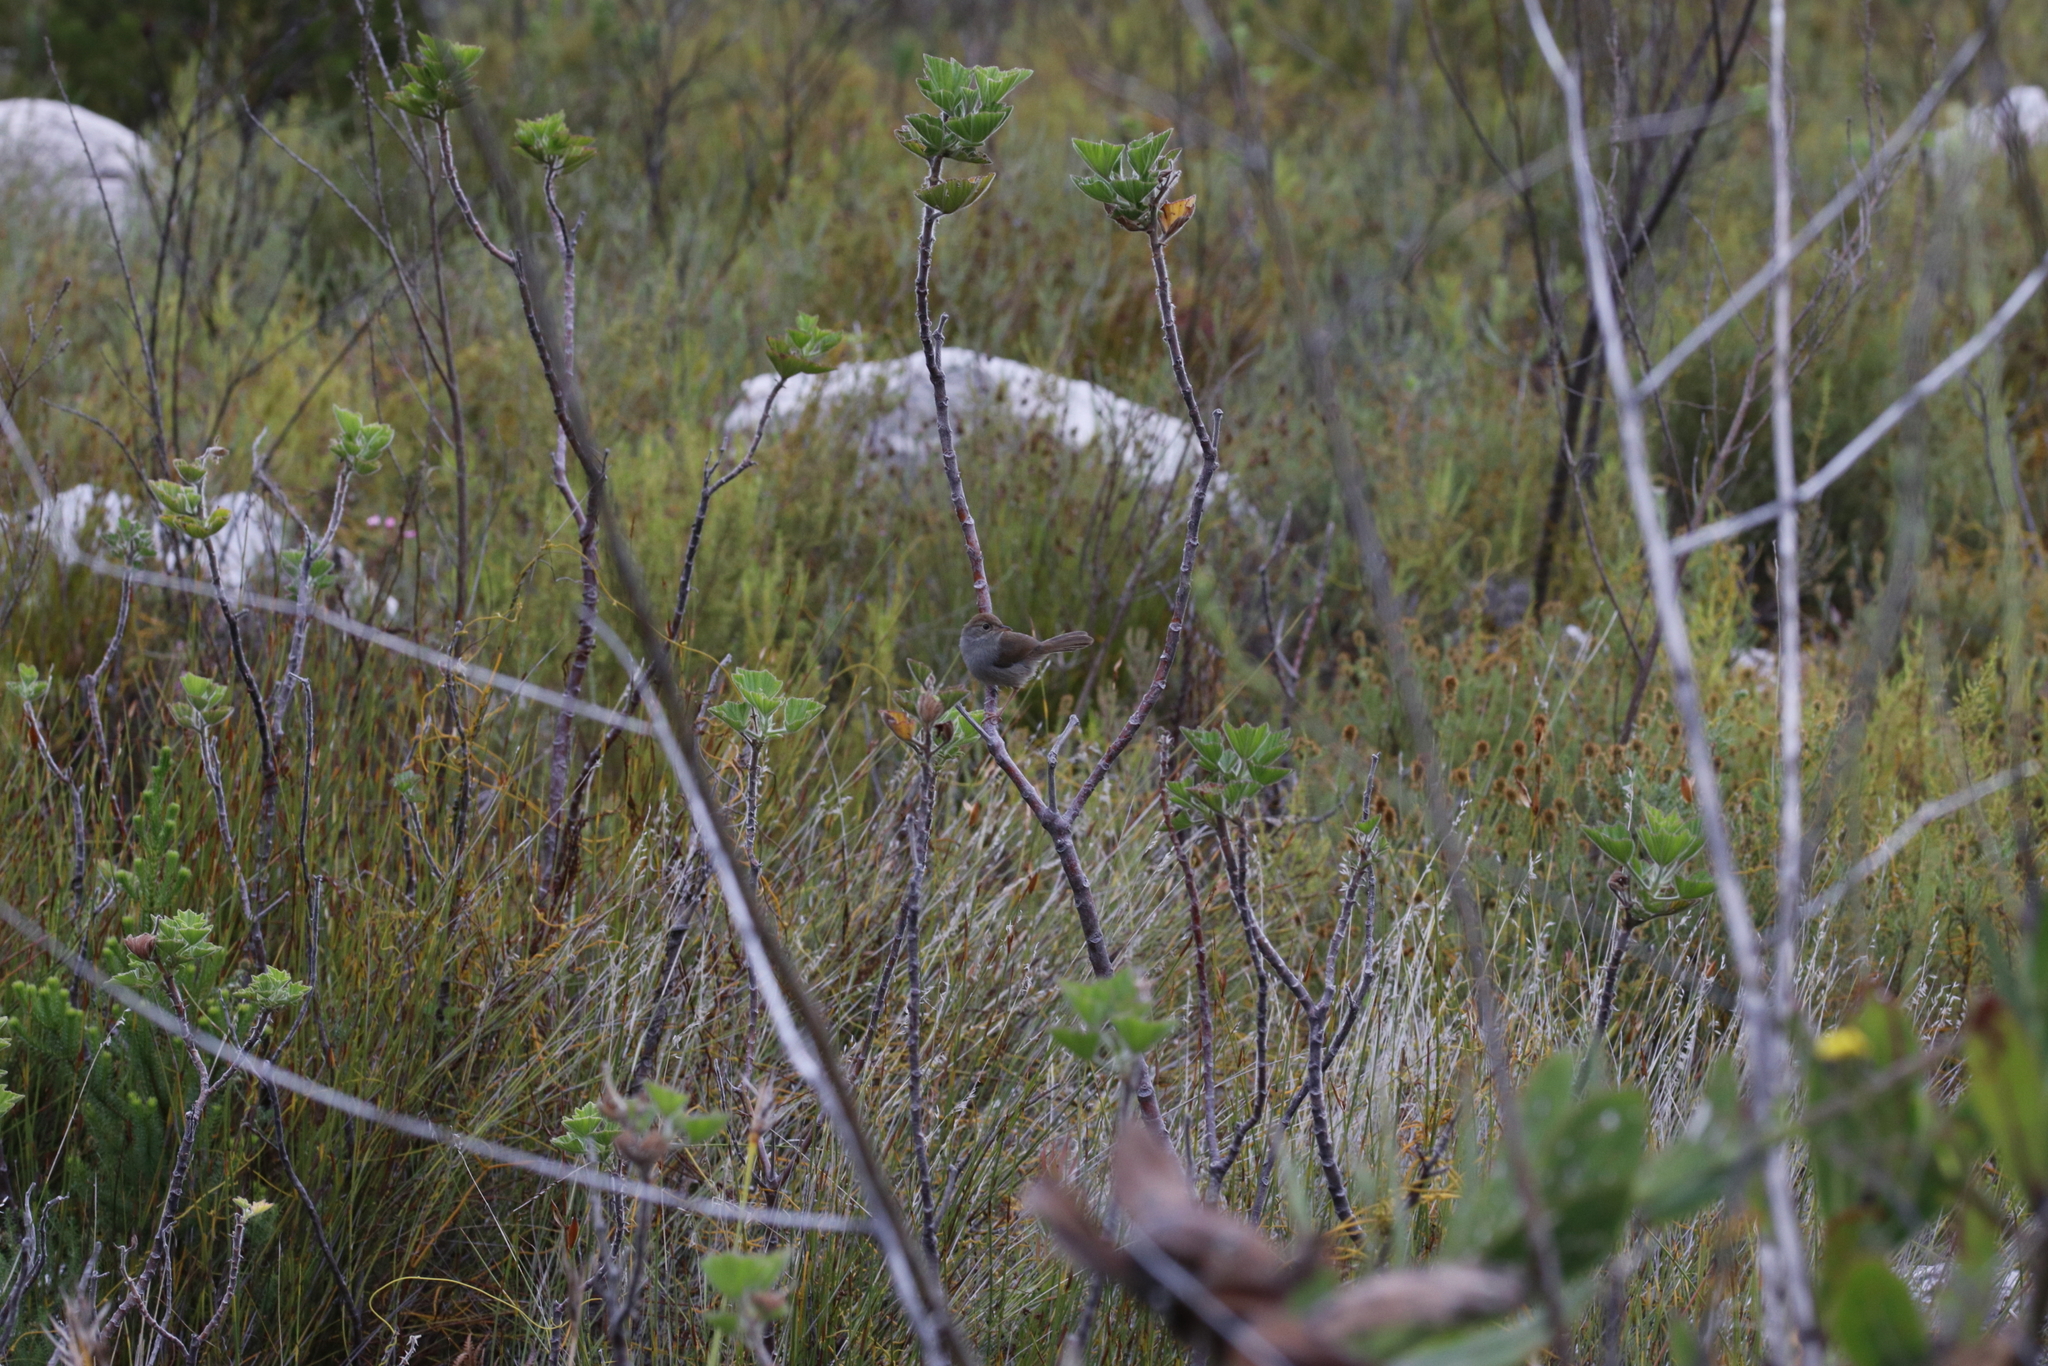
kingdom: Animalia
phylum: Chordata
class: Aves
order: Passeriformes
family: Cisticolidae
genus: Cisticola
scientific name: Cisticola fulvicapilla
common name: Neddicky
